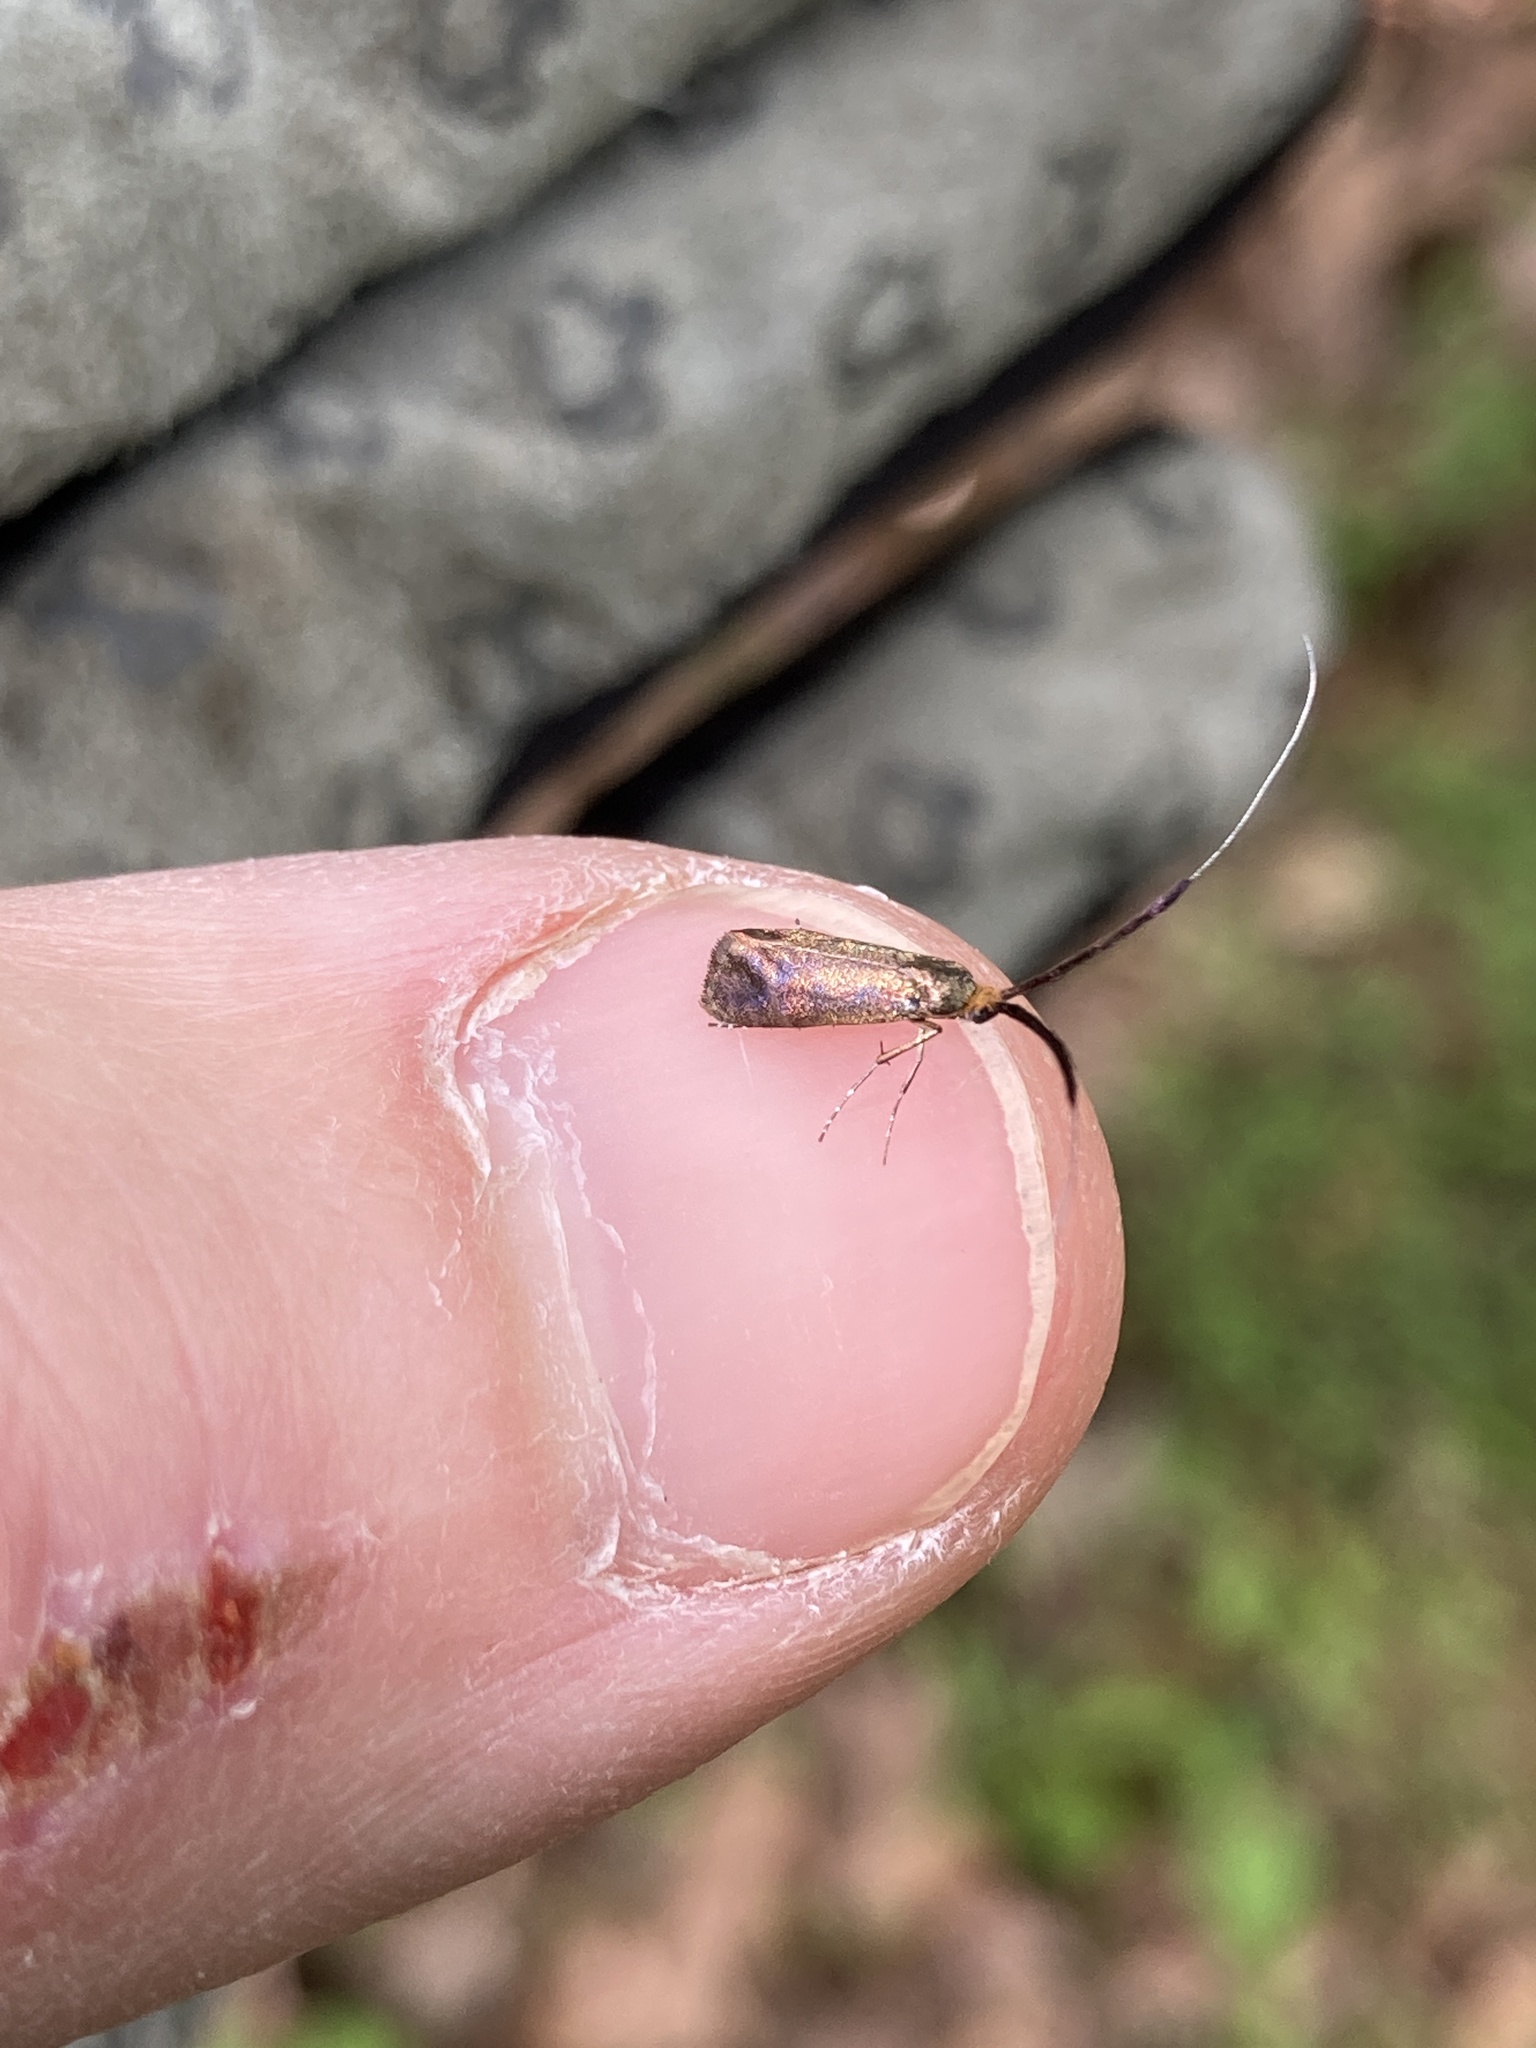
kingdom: Animalia
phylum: Arthropoda
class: Insecta
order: Lepidoptera
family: Adelidae
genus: Adela
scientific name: Adela caeruleella
